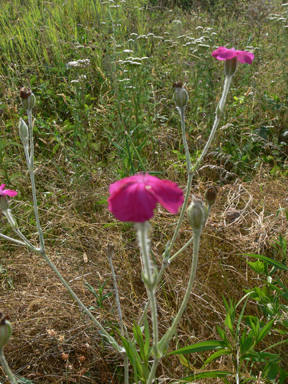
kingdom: Plantae
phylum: Tracheophyta
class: Magnoliopsida
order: Caryophyllales
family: Caryophyllaceae
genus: Silene
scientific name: Silene coronaria
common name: Rose campion
